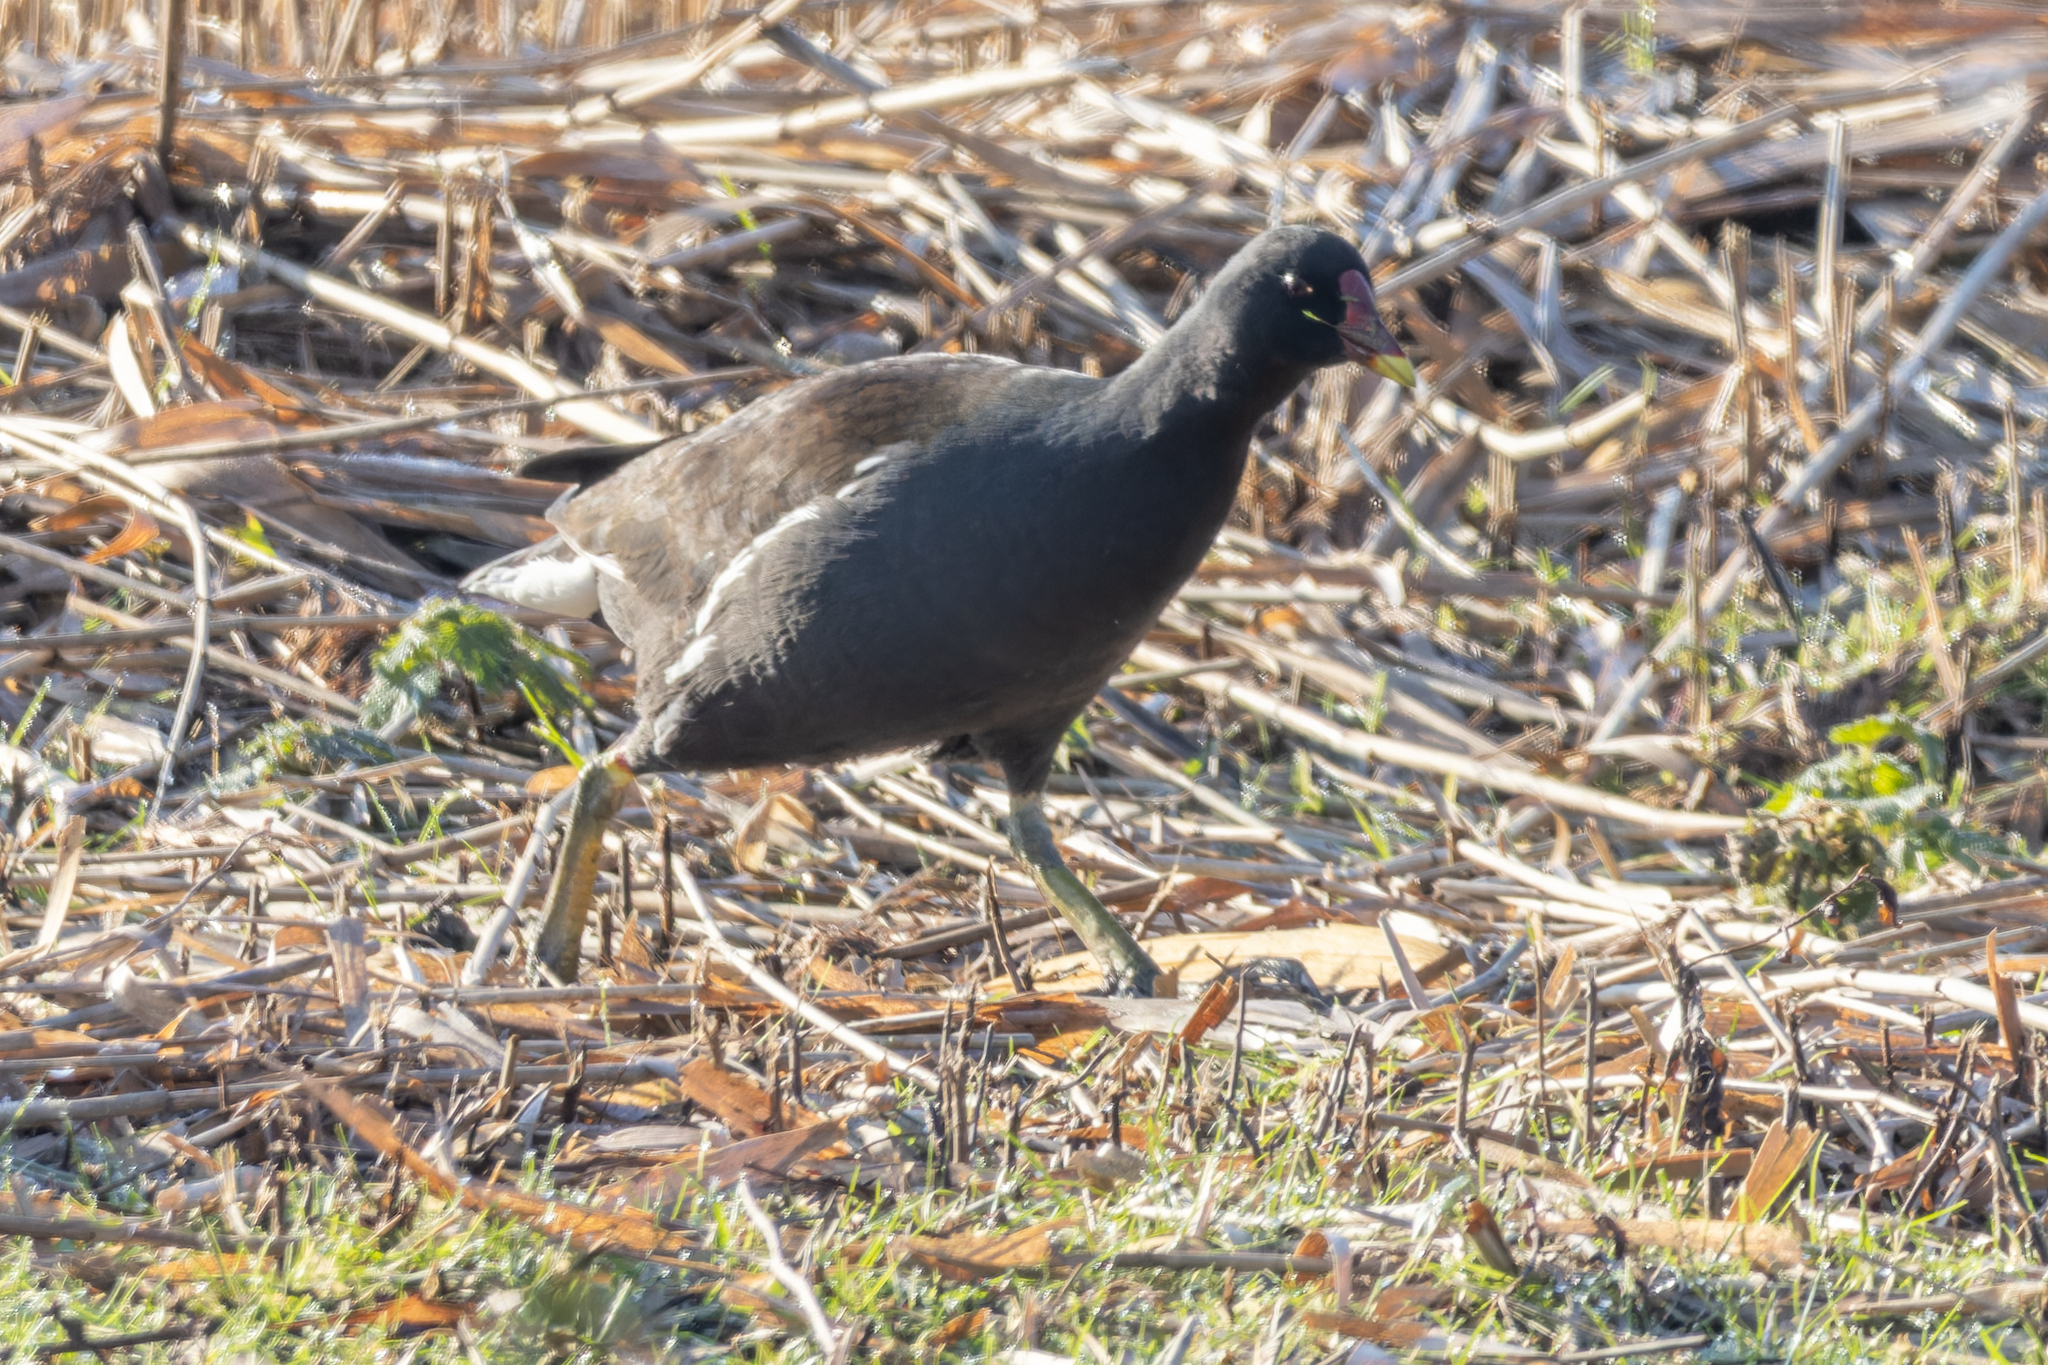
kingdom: Animalia
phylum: Chordata
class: Aves
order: Gruiformes
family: Rallidae
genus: Gallinula
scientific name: Gallinula chloropus
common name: Common moorhen
